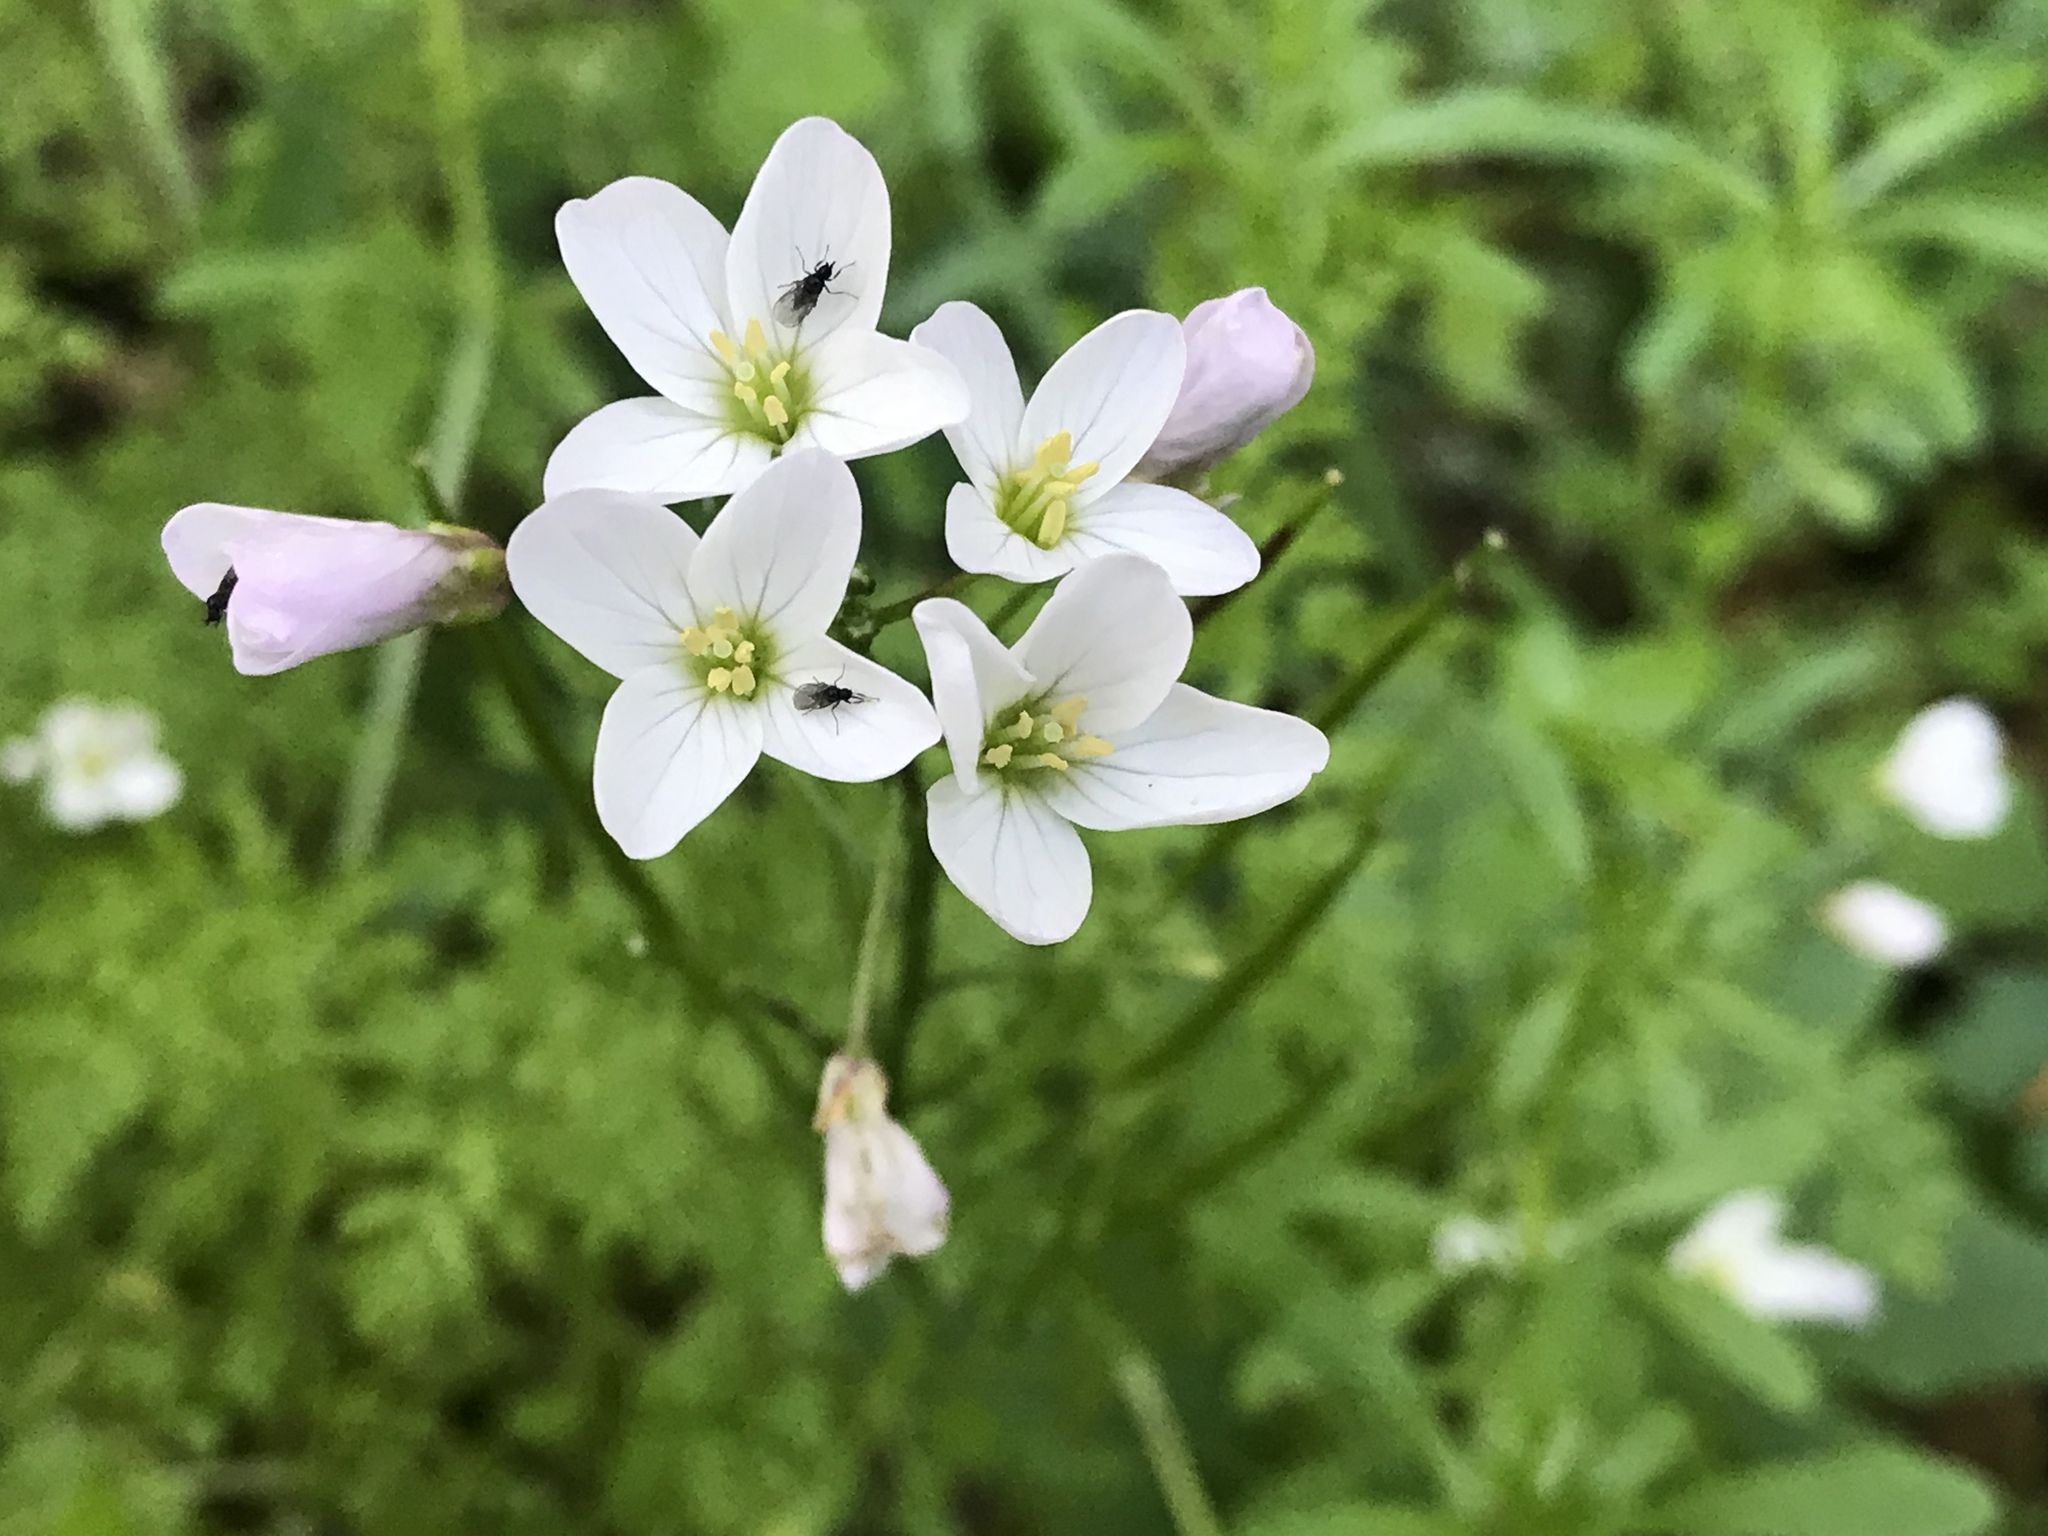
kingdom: Plantae
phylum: Tracheophyta
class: Magnoliopsida
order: Brassicales
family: Brassicaceae
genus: Cardamine
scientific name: Cardamine californica
